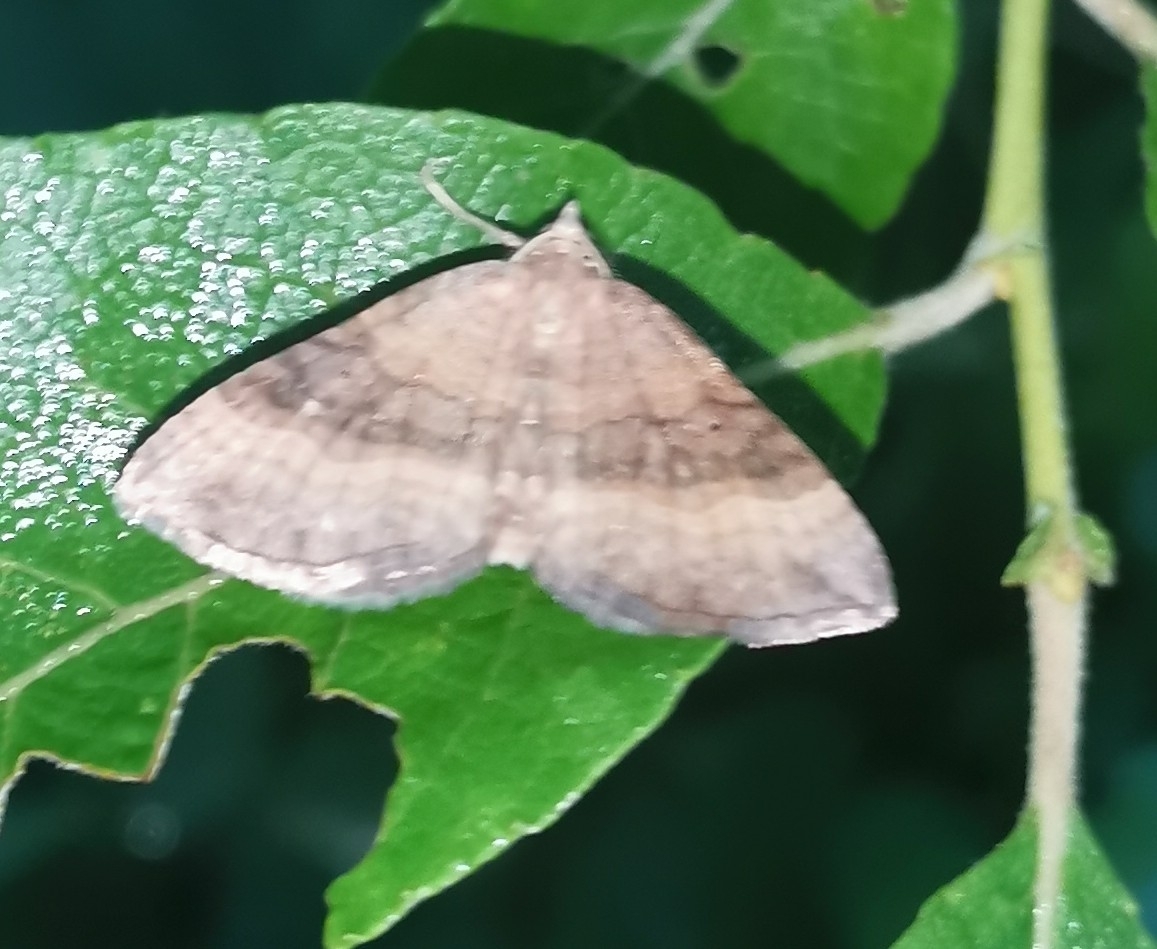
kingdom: Animalia
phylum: Arthropoda
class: Insecta
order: Lepidoptera
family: Geometridae
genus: Scotopteryx
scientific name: Scotopteryx chenopodiata
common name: Shaded broad-bar
